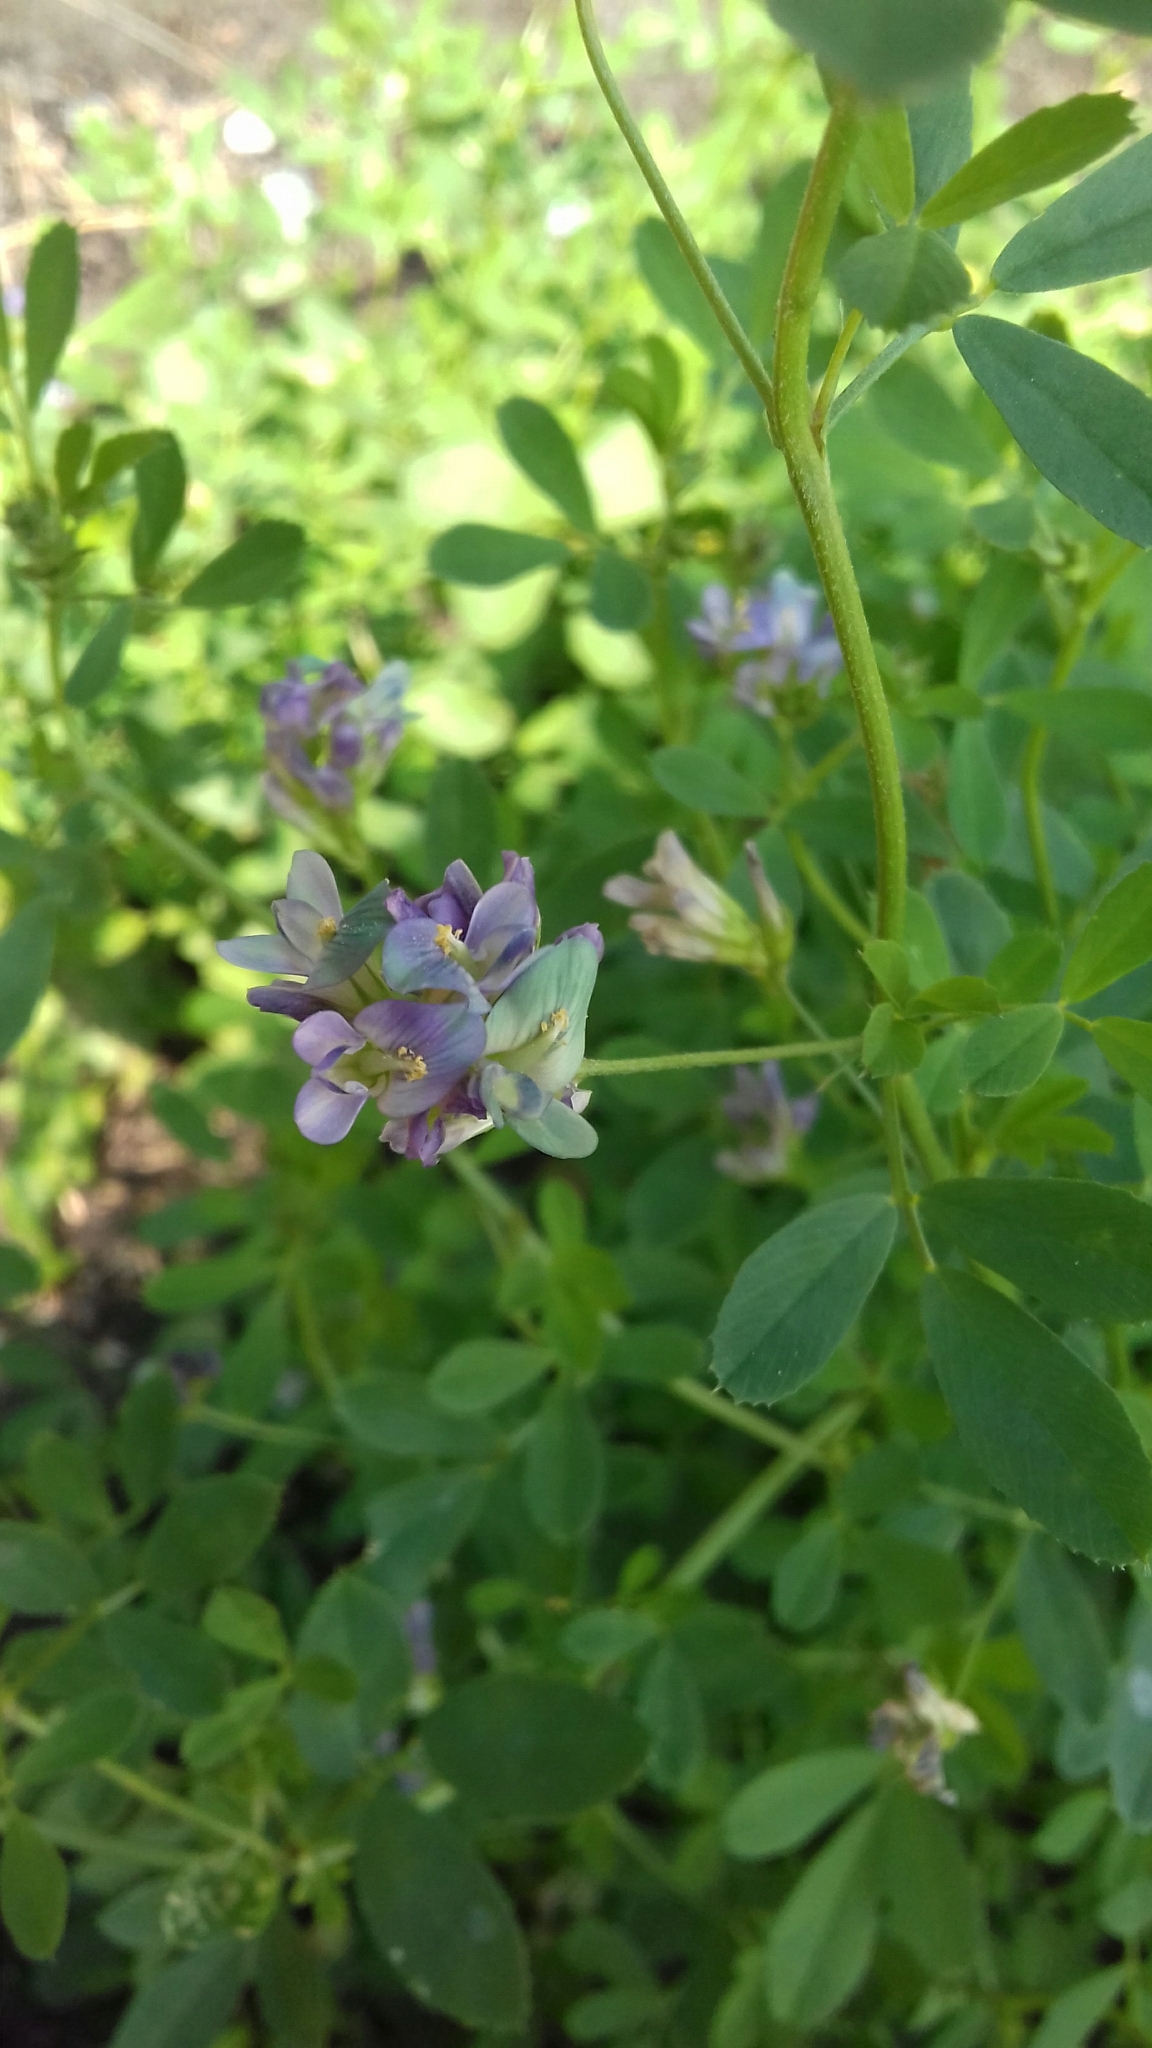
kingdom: Plantae
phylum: Tracheophyta
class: Magnoliopsida
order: Fabales
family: Fabaceae
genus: Medicago
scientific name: Medicago varia
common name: Sand lucerne
